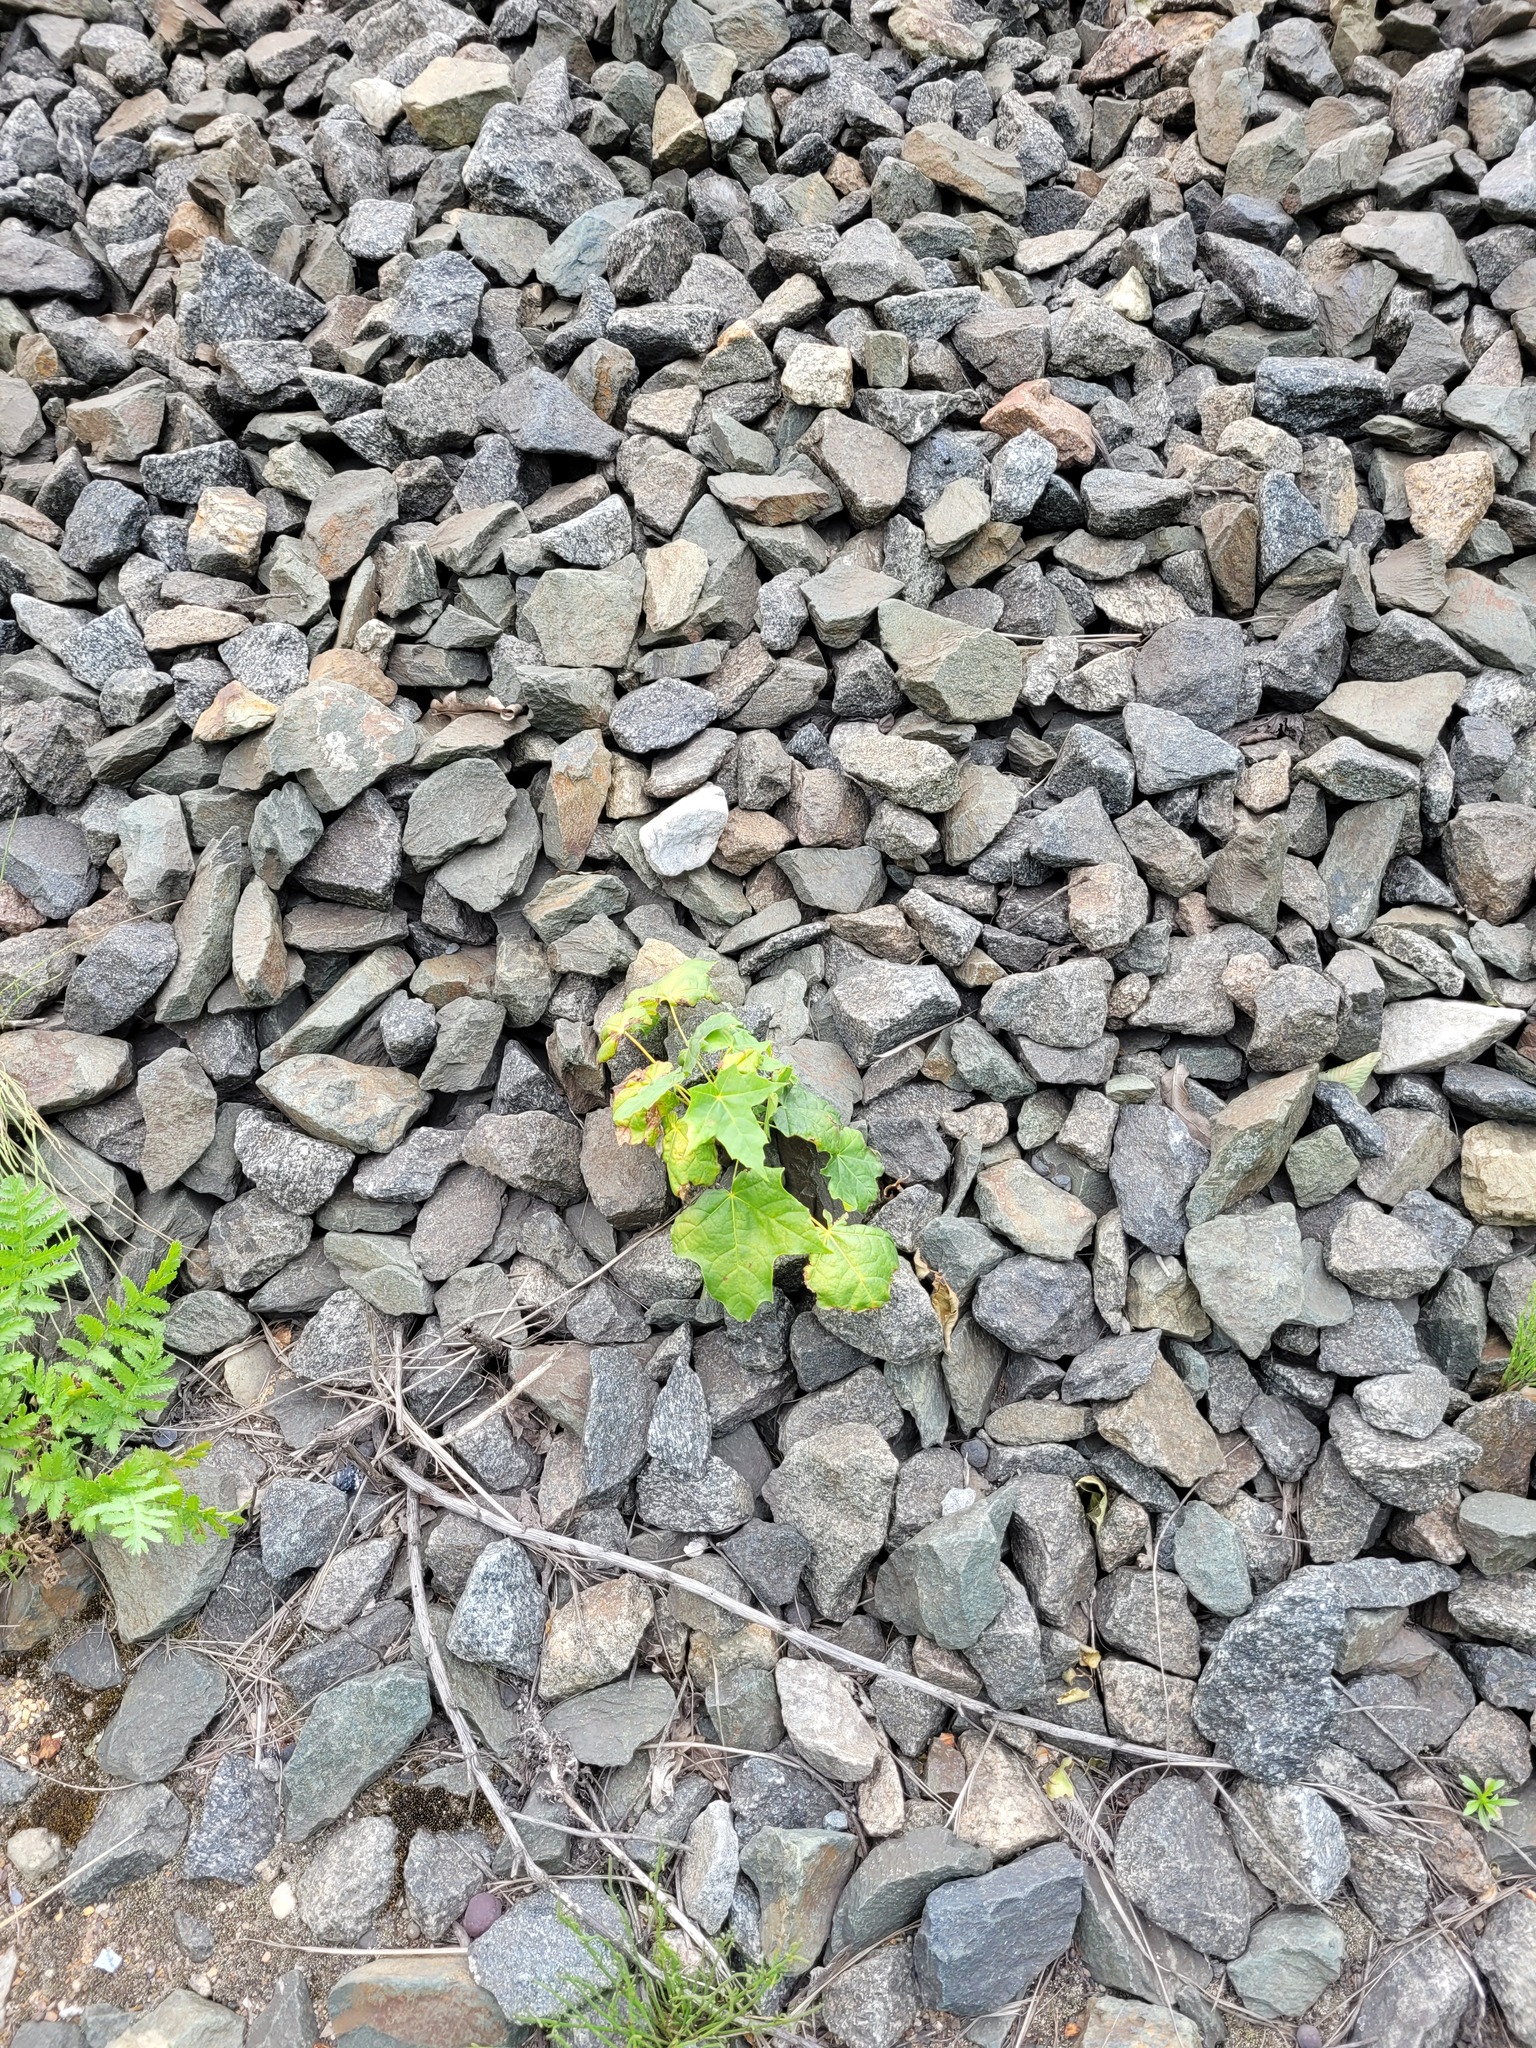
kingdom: Plantae
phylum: Tracheophyta
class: Magnoliopsida
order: Sapindales
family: Sapindaceae
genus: Acer
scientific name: Acer platanoides
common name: Norway maple
